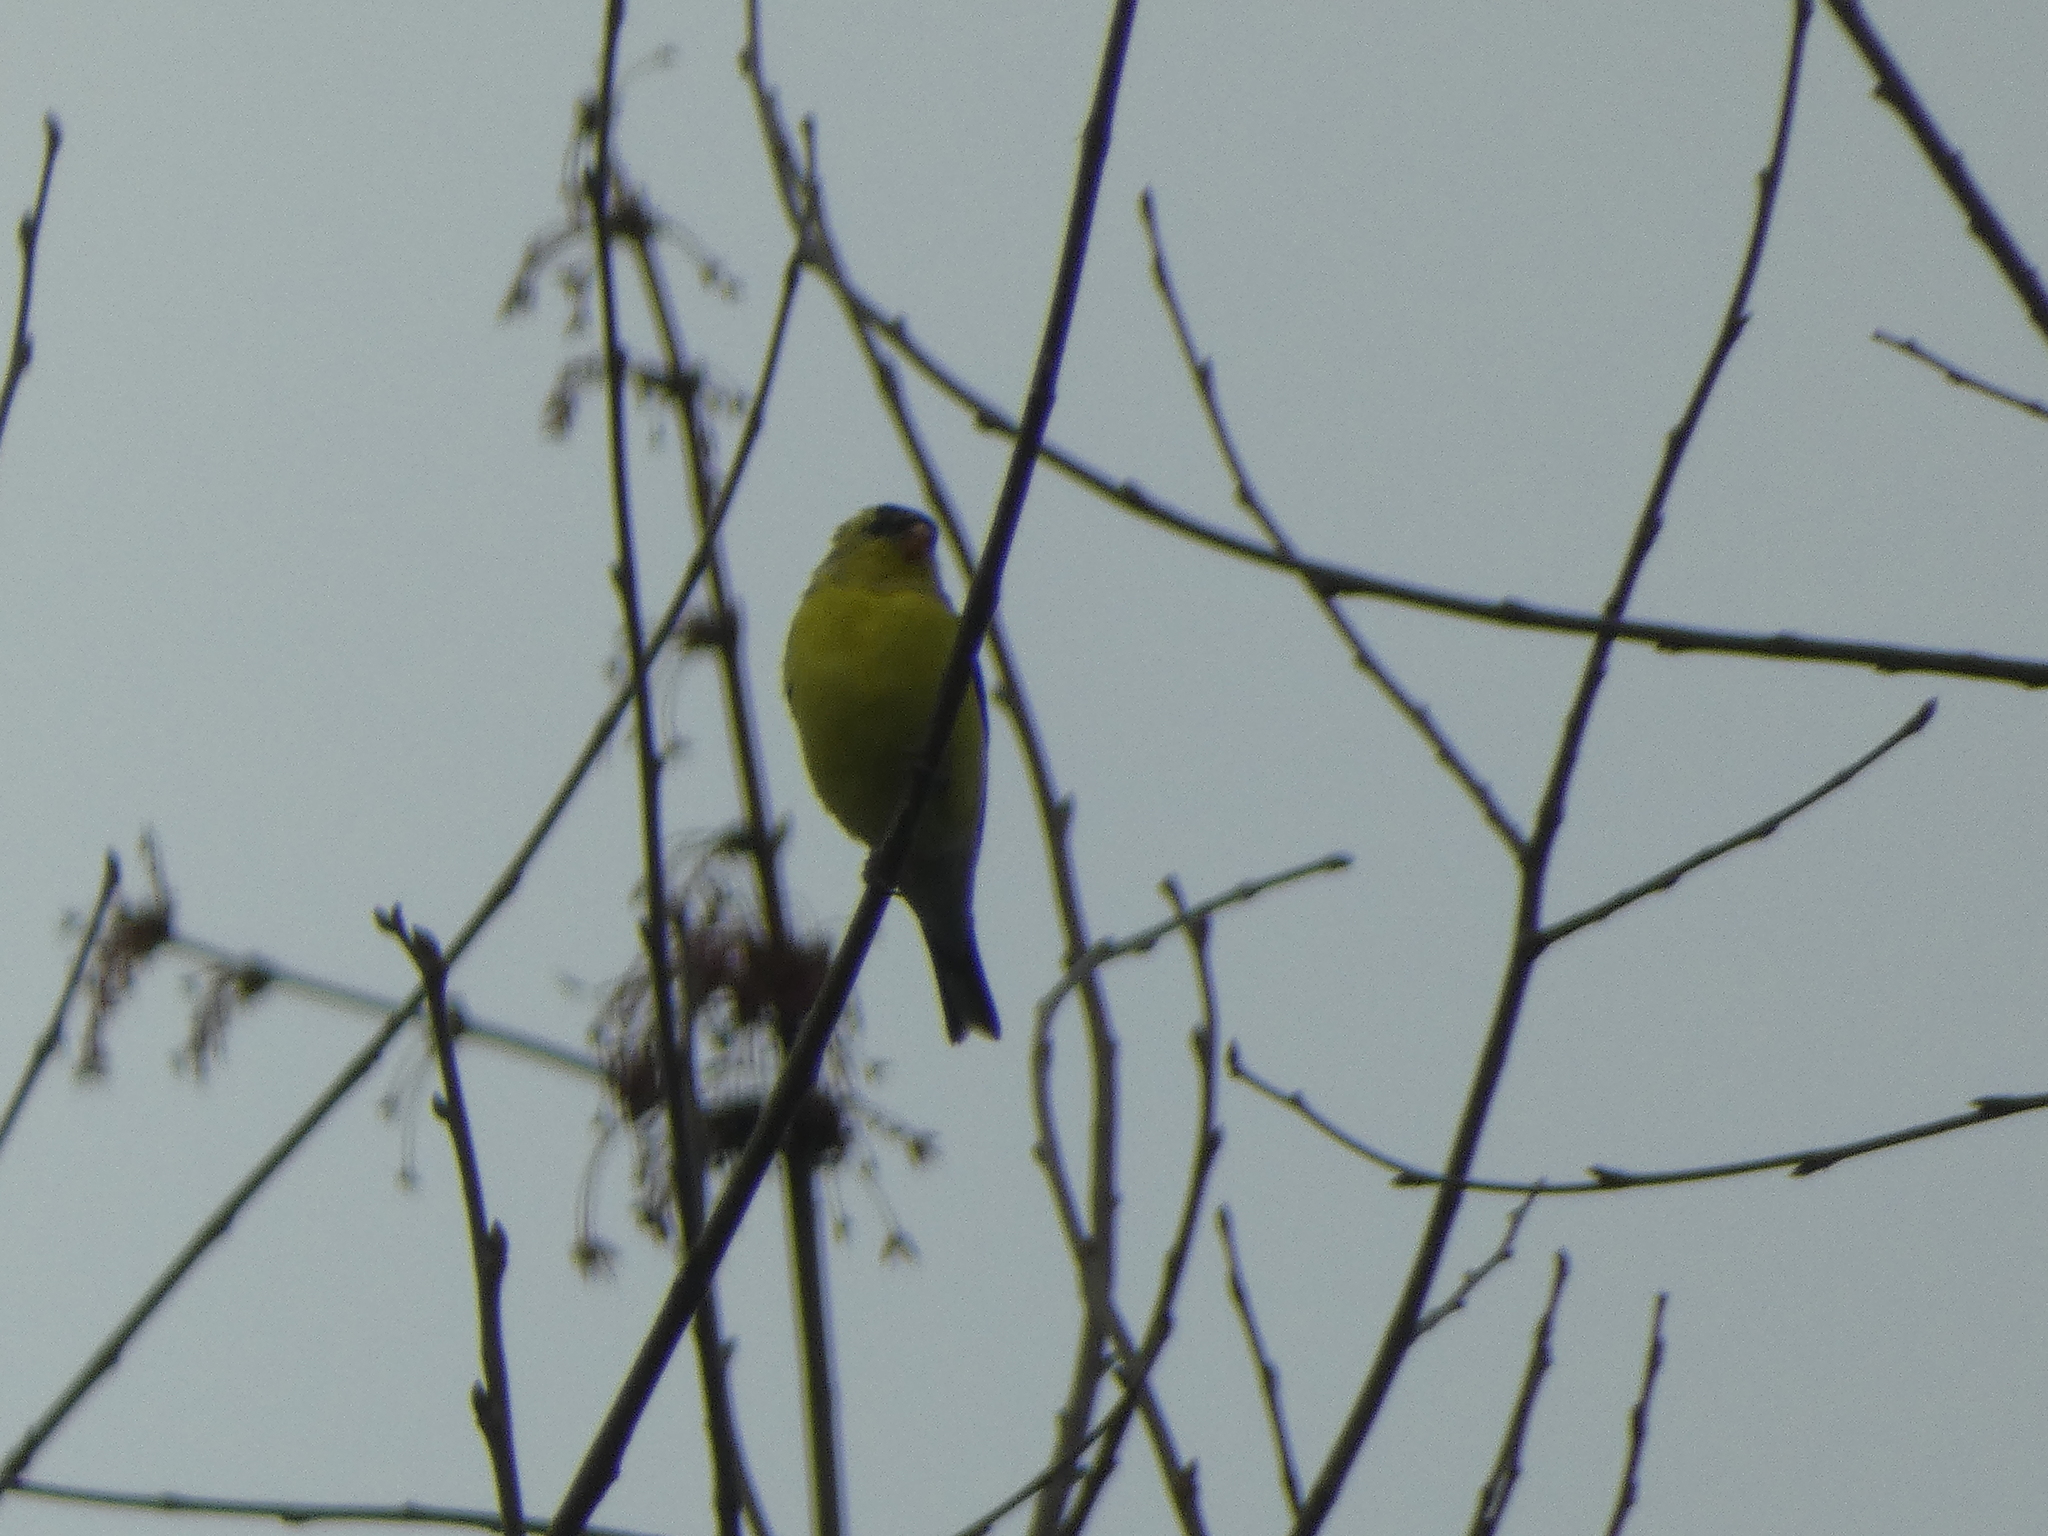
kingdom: Animalia
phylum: Chordata
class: Aves
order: Passeriformes
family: Fringillidae
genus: Spinus
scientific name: Spinus tristis
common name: American goldfinch
